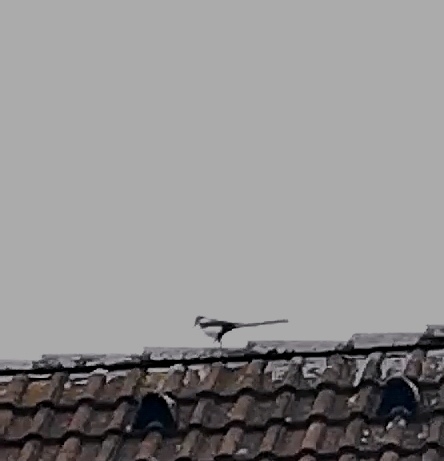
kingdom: Animalia
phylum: Chordata
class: Aves
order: Passeriformes
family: Corvidae
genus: Pica
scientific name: Pica pica
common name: Eurasian magpie
